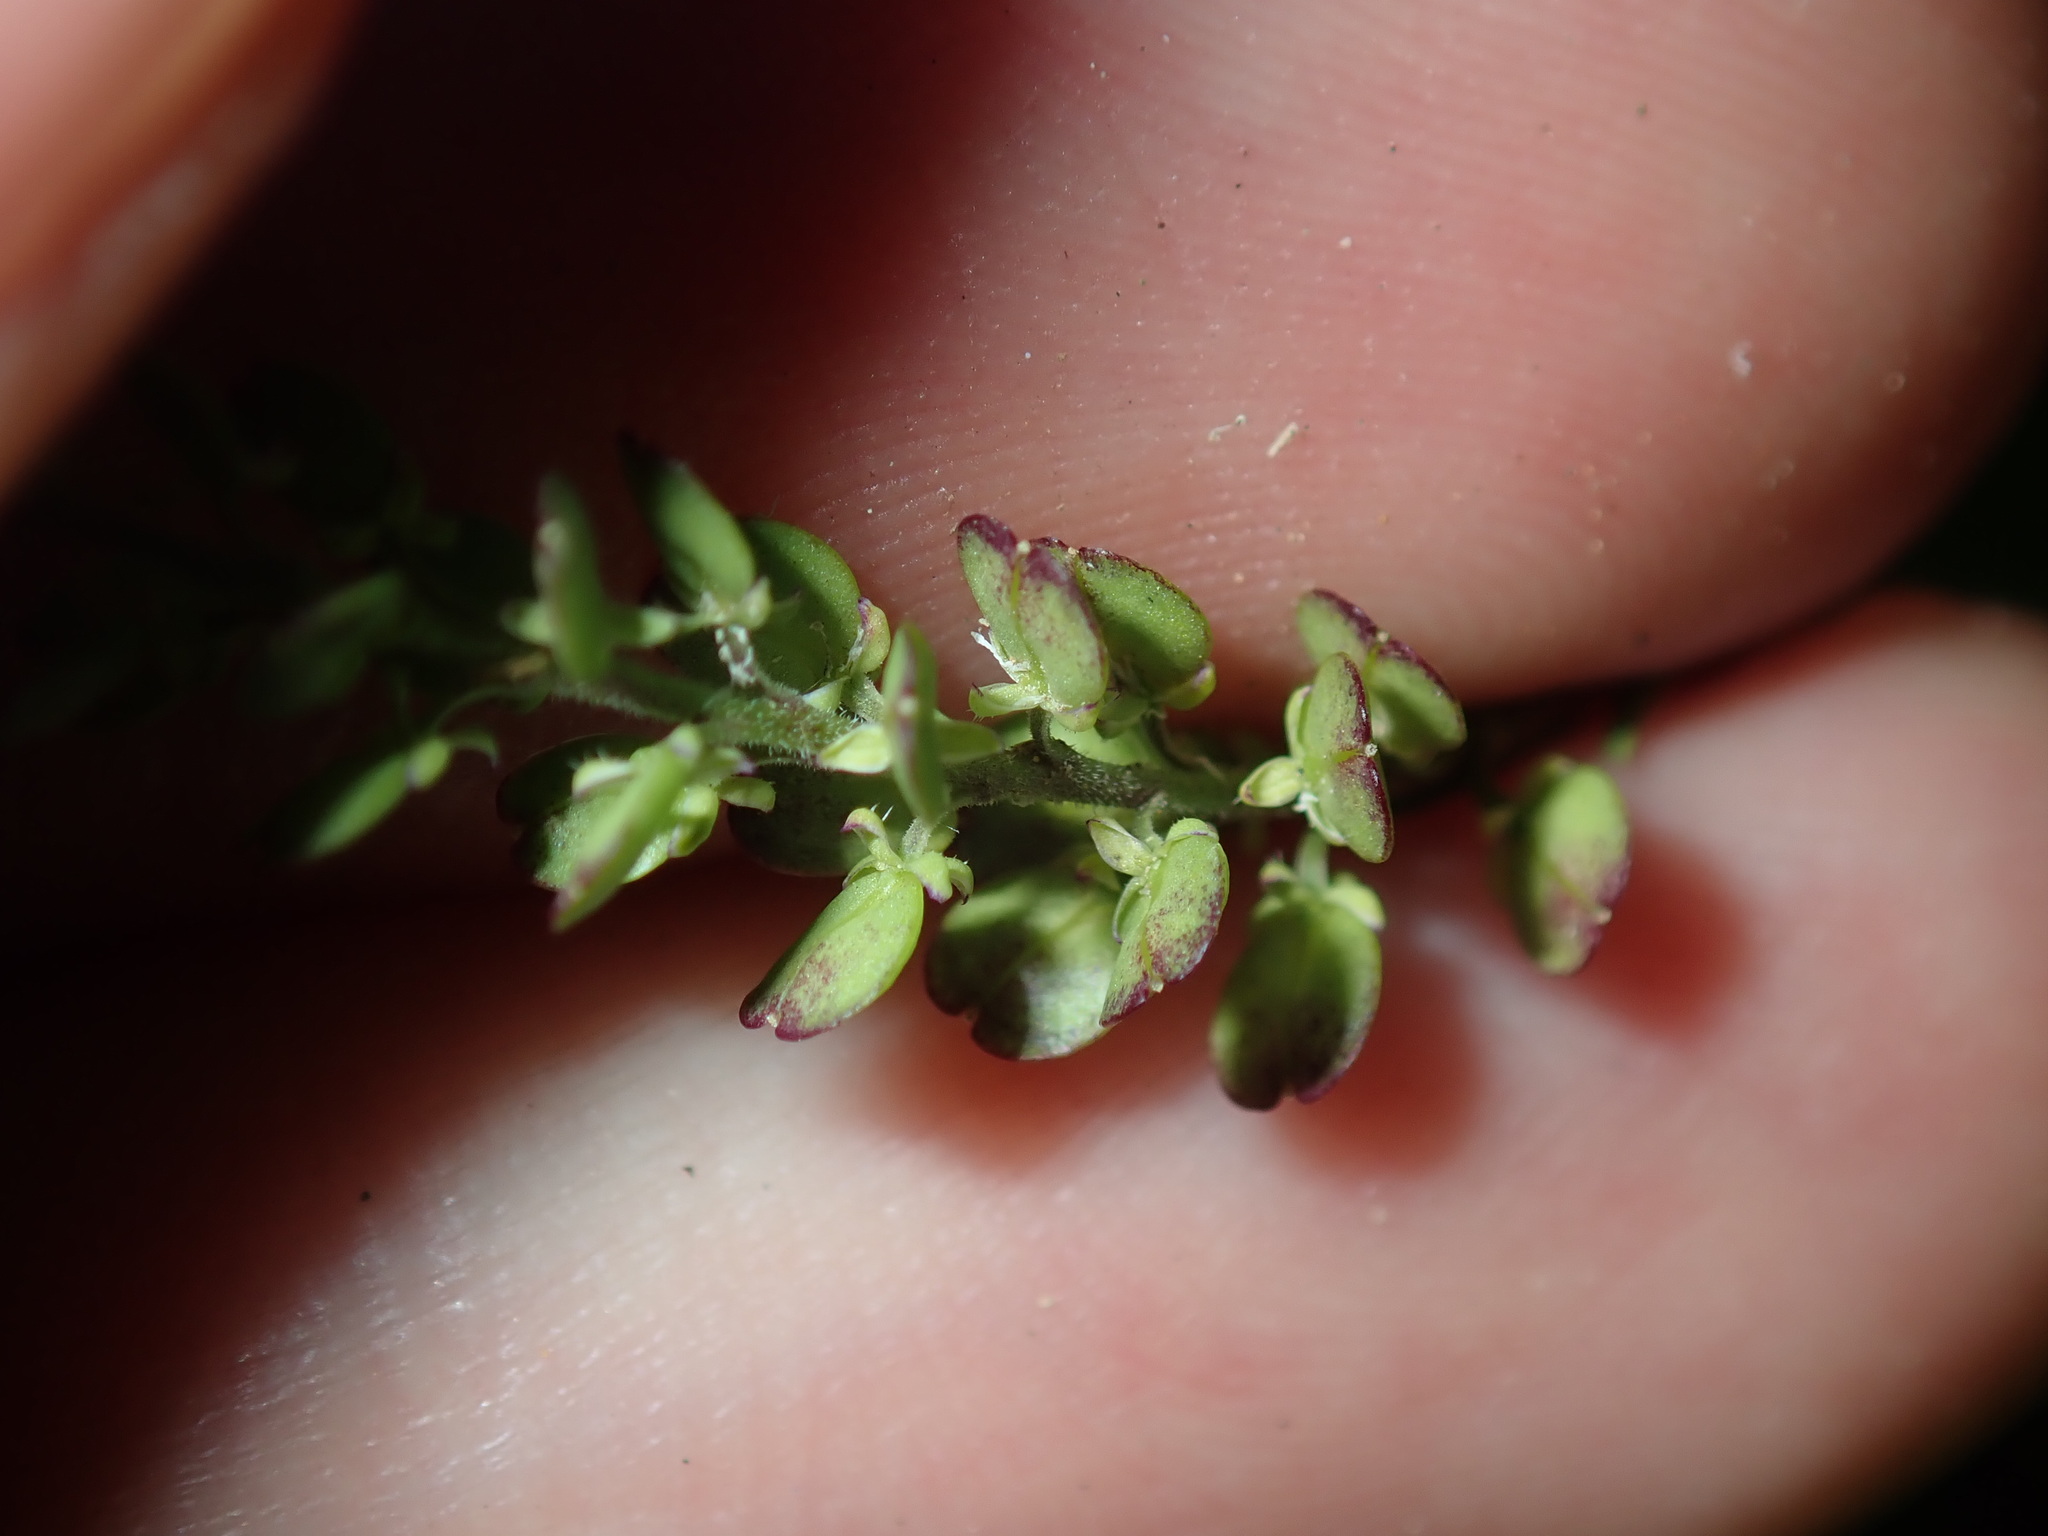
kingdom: Plantae
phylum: Tracheophyta
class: Magnoliopsida
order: Brassicales
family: Brassicaceae
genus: Lepidium
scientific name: Lepidium bonariense
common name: Argentine pepperwort
